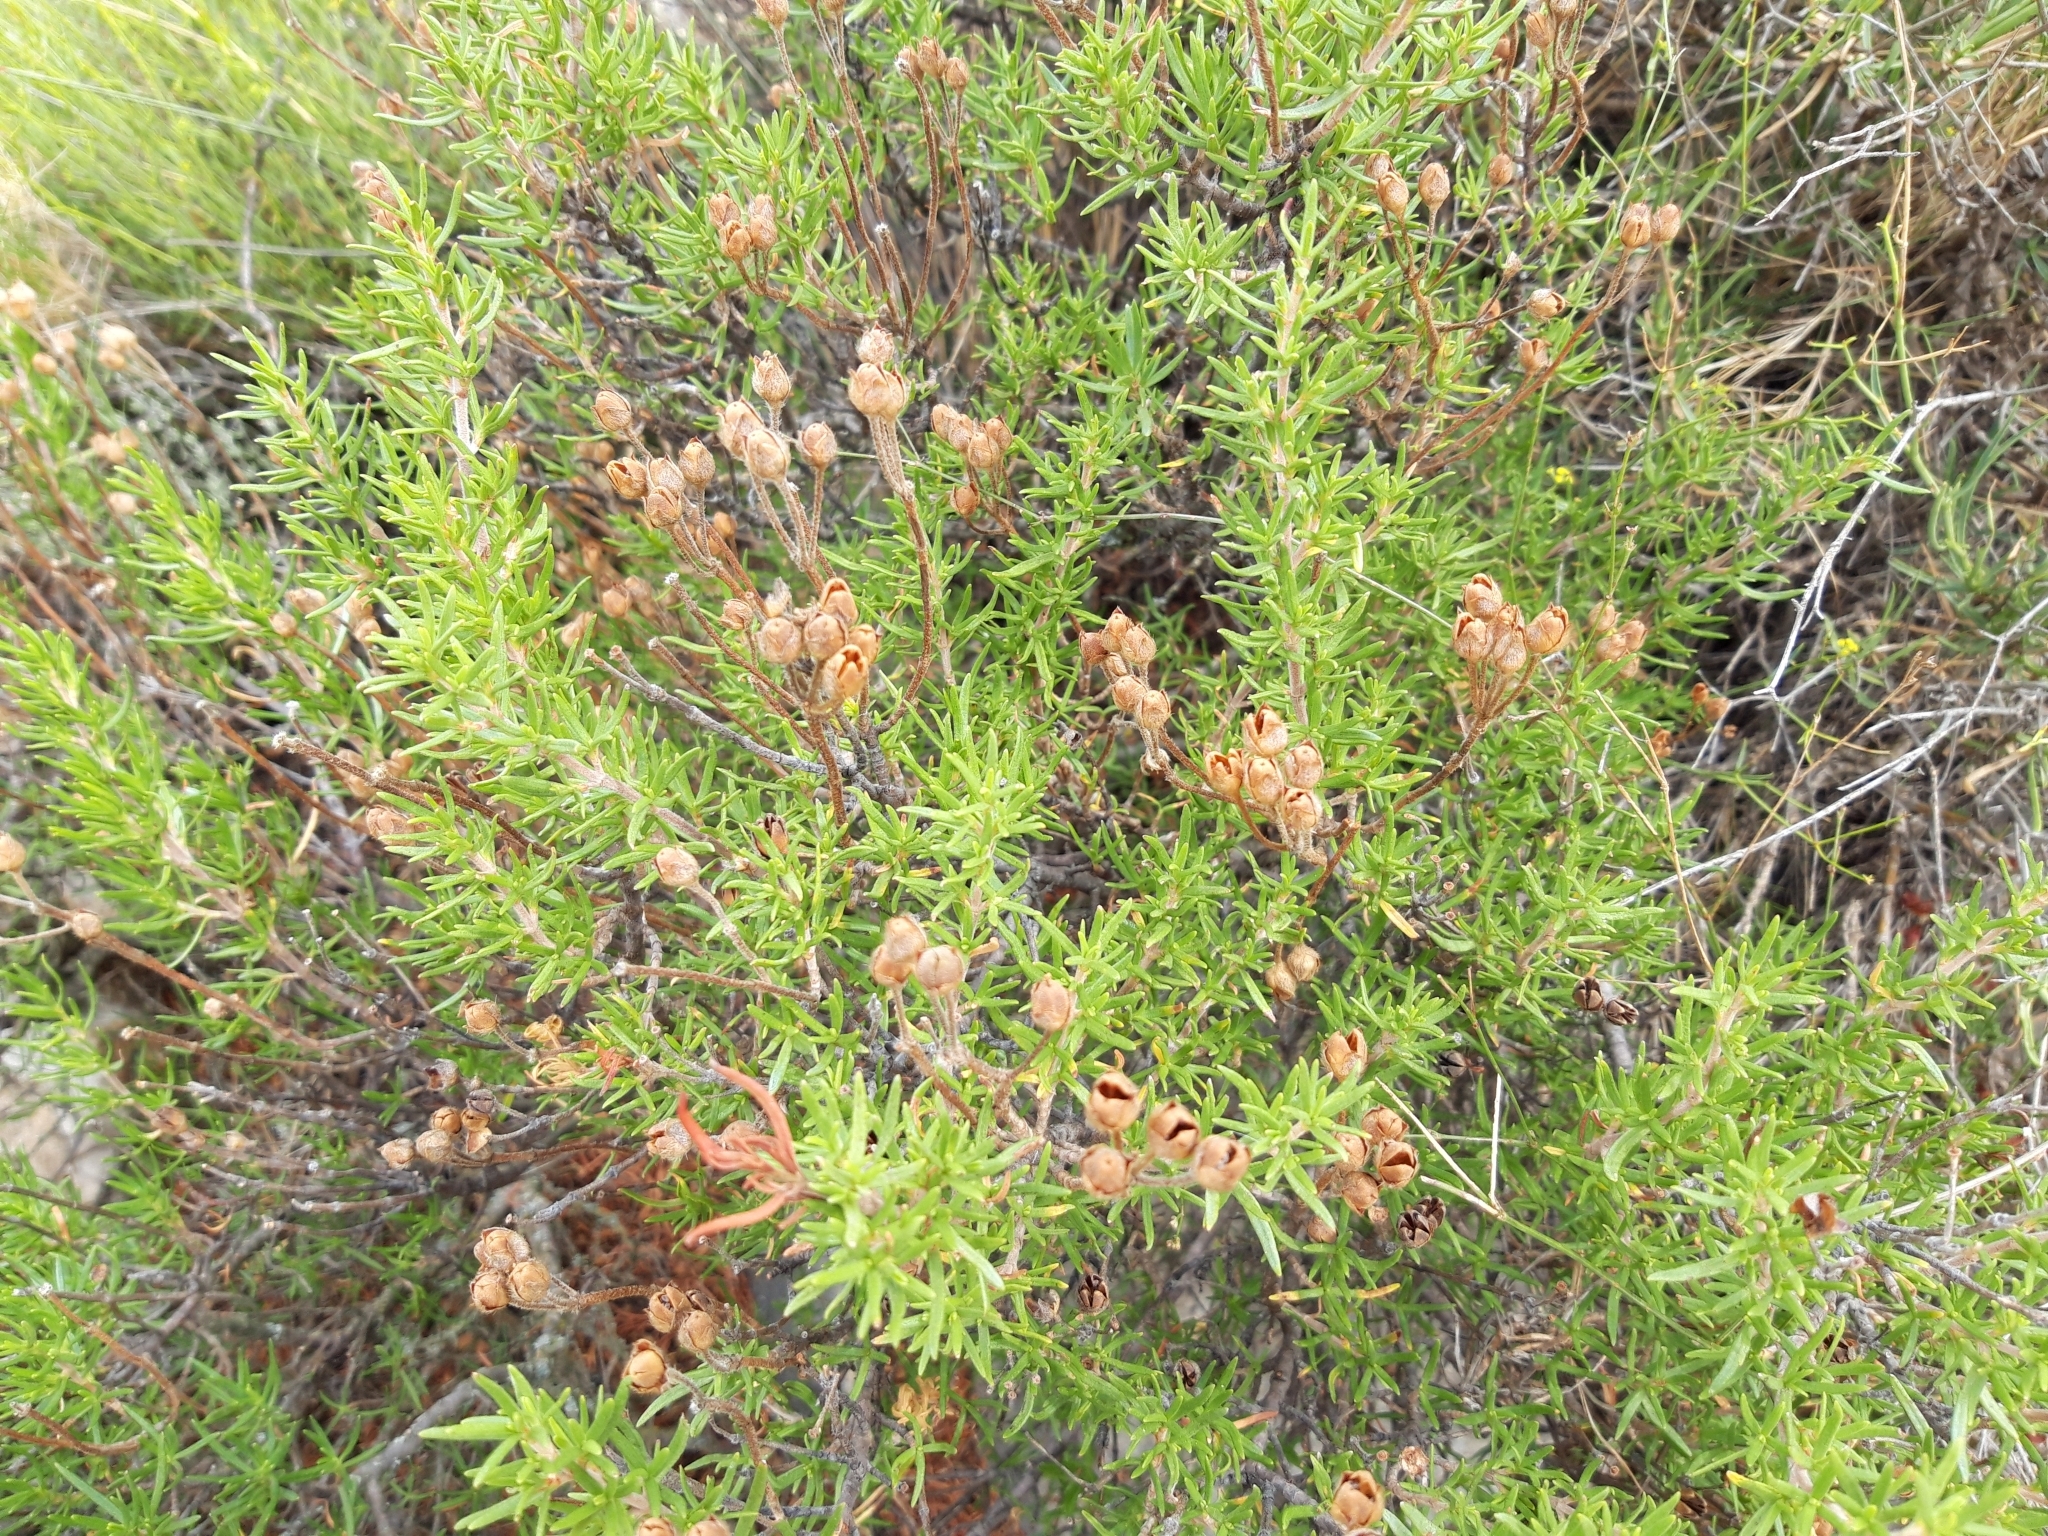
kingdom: Plantae
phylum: Tracheophyta
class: Magnoliopsida
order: Malvales
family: Cistaceae
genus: Cistus
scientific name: Cistus clusii
